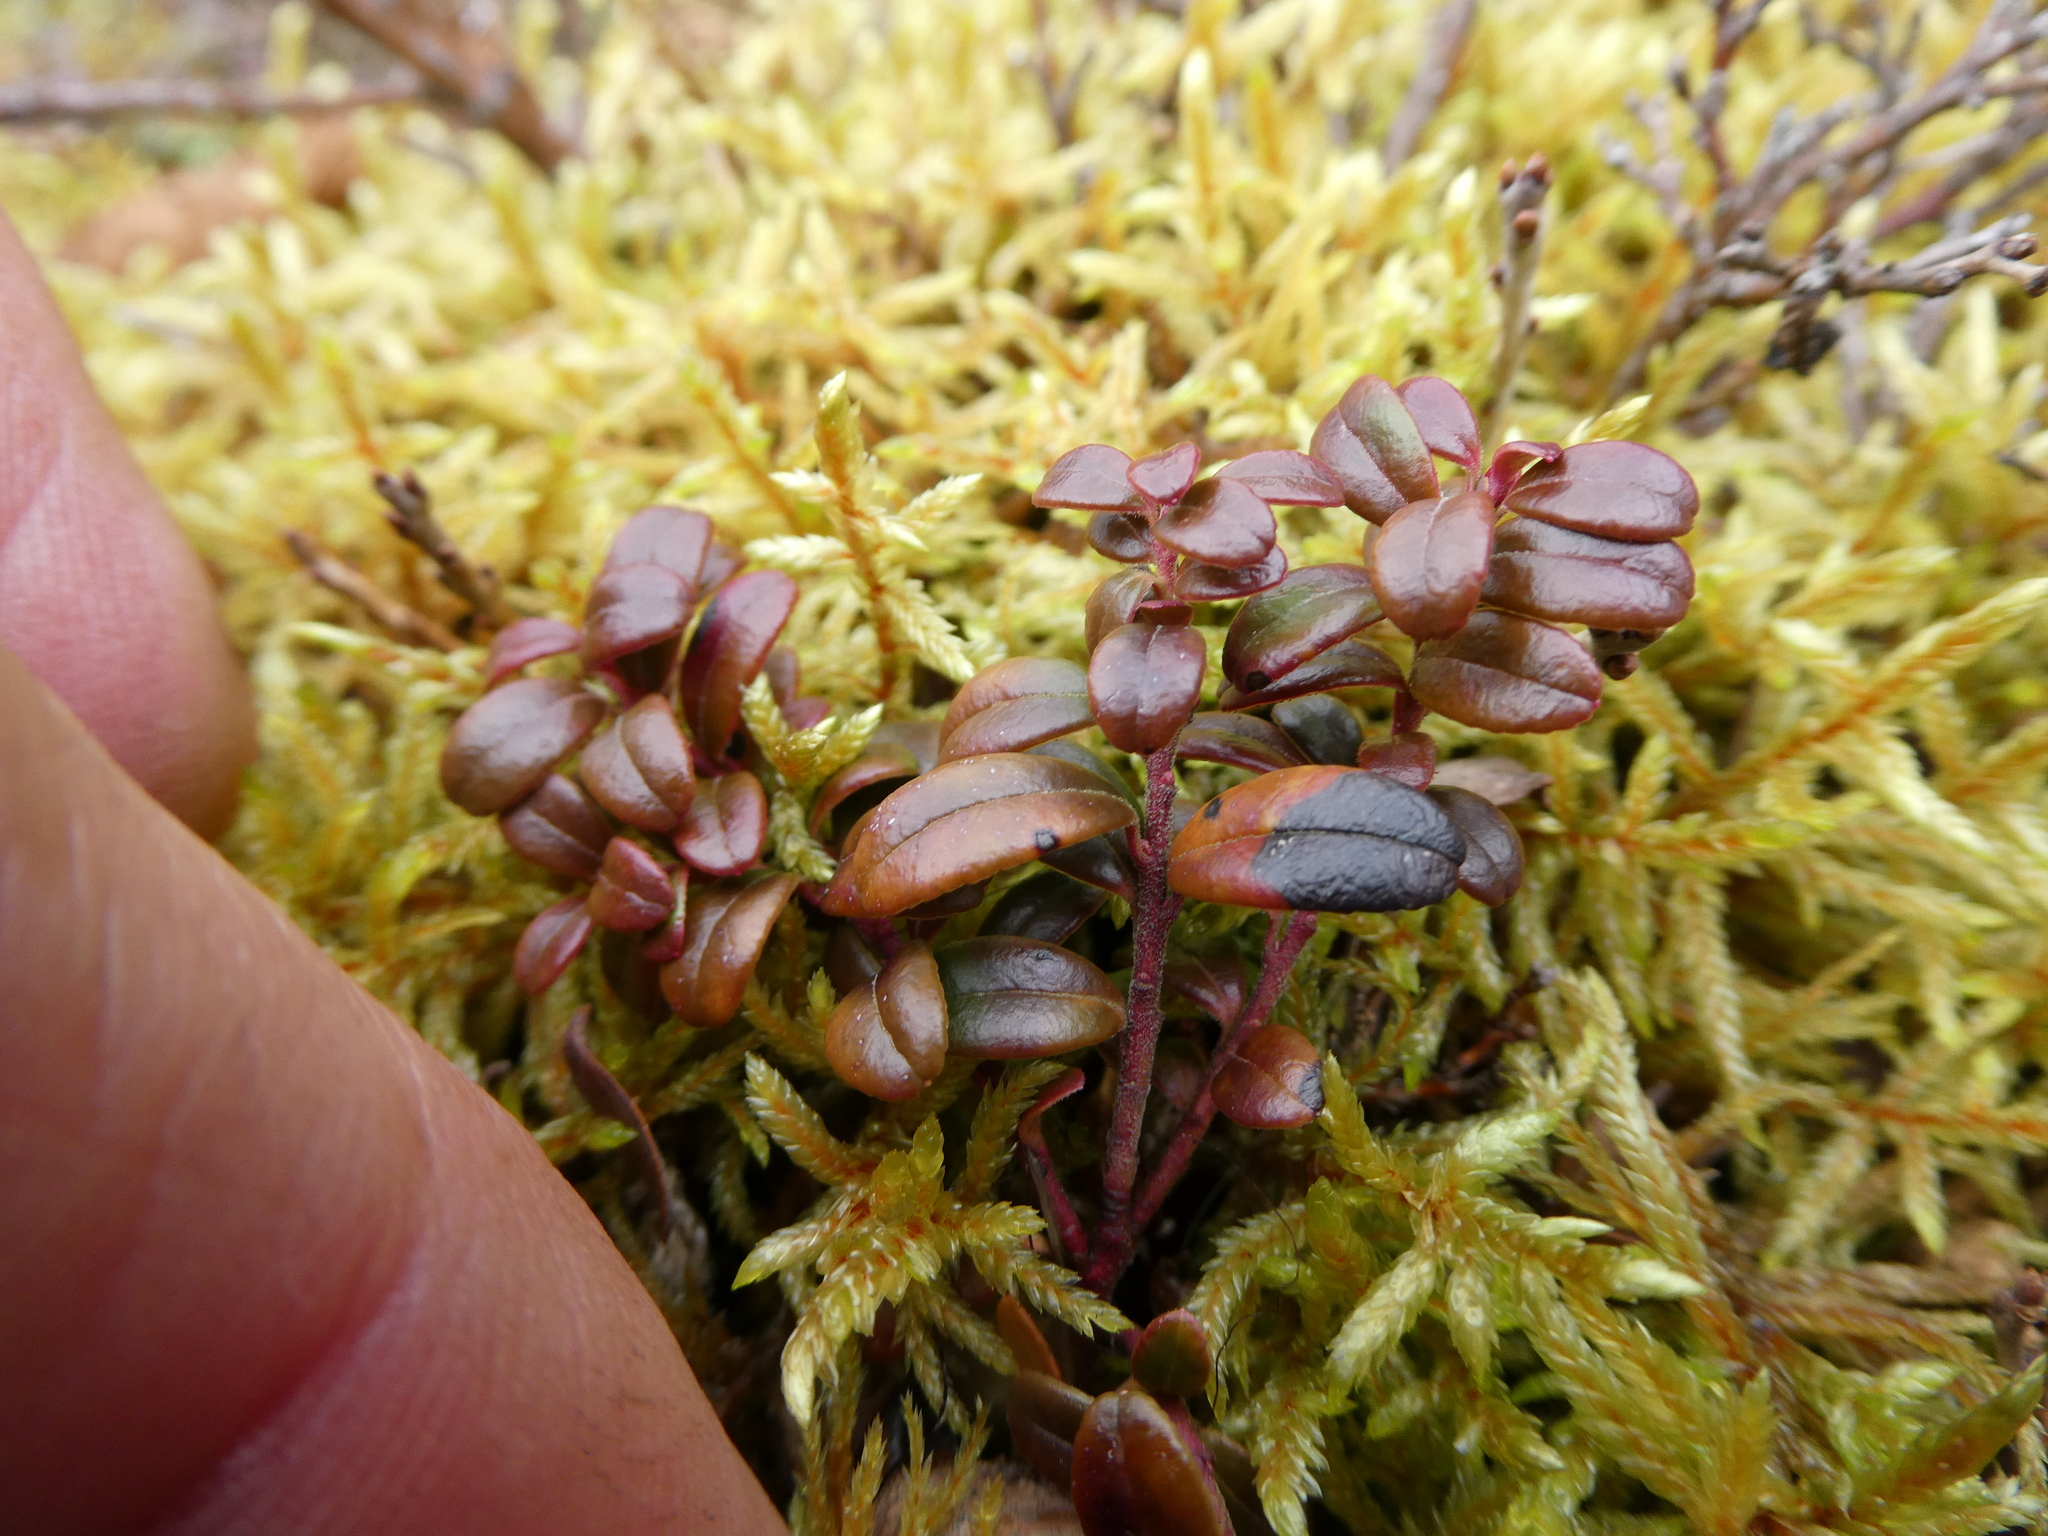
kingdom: Plantae
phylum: Tracheophyta
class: Magnoliopsida
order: Ericales
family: Ericaceae
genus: Vaccinium
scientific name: Vaccinium vitis-idaea
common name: Cowberry
